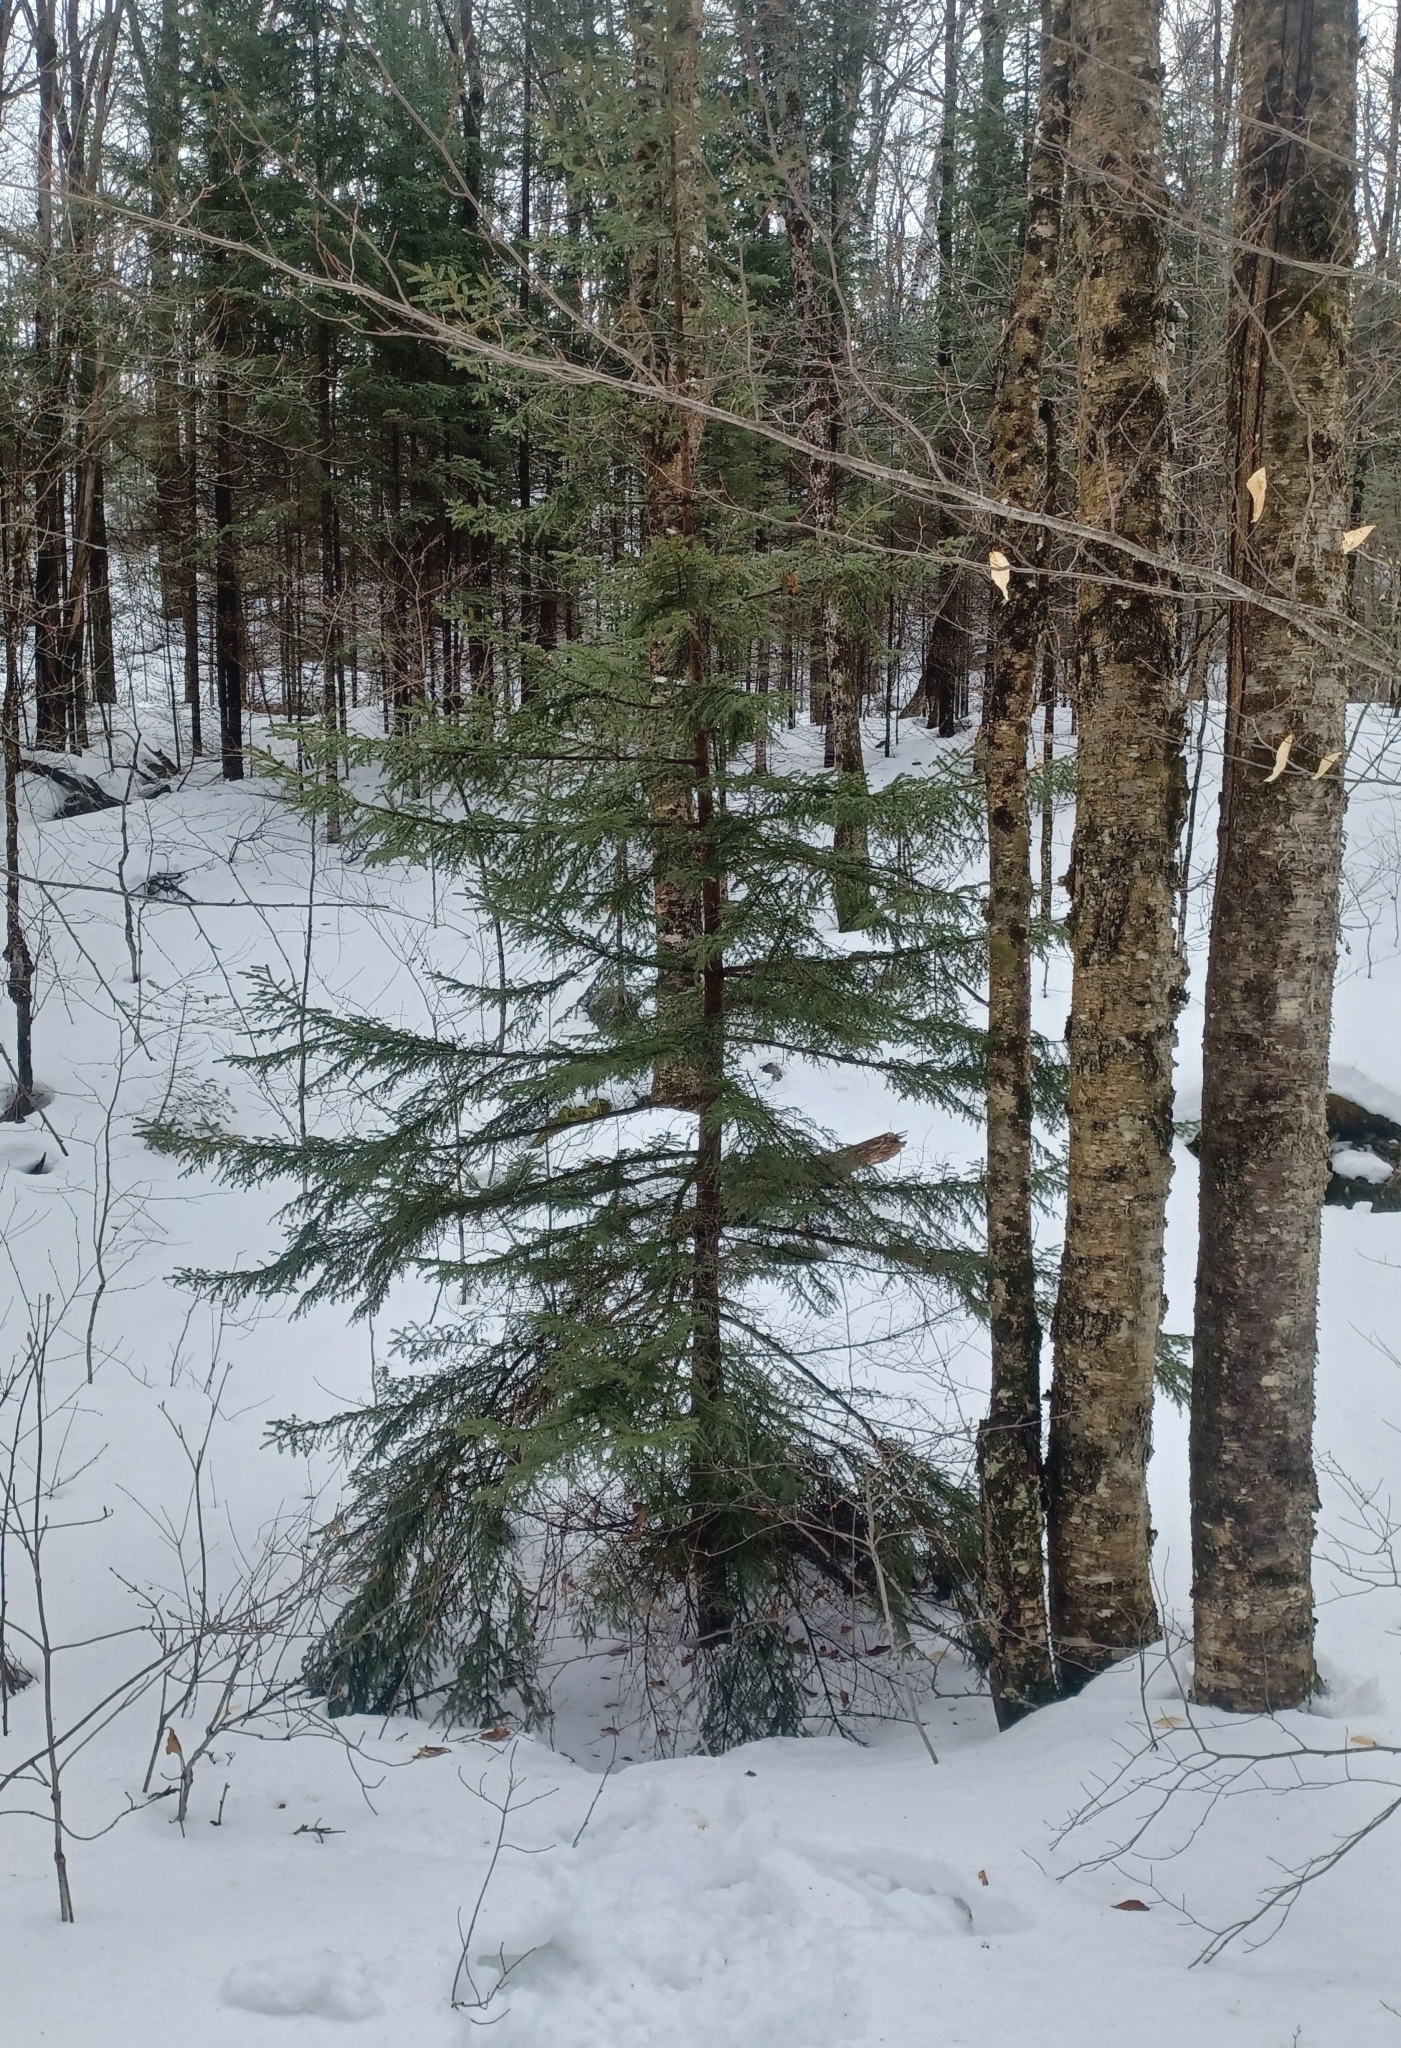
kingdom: Plantae
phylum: Tracheophyta
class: Pinopsida
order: Pinales
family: Pinaceae
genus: Picea
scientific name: Picea rubens
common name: Red spruce
